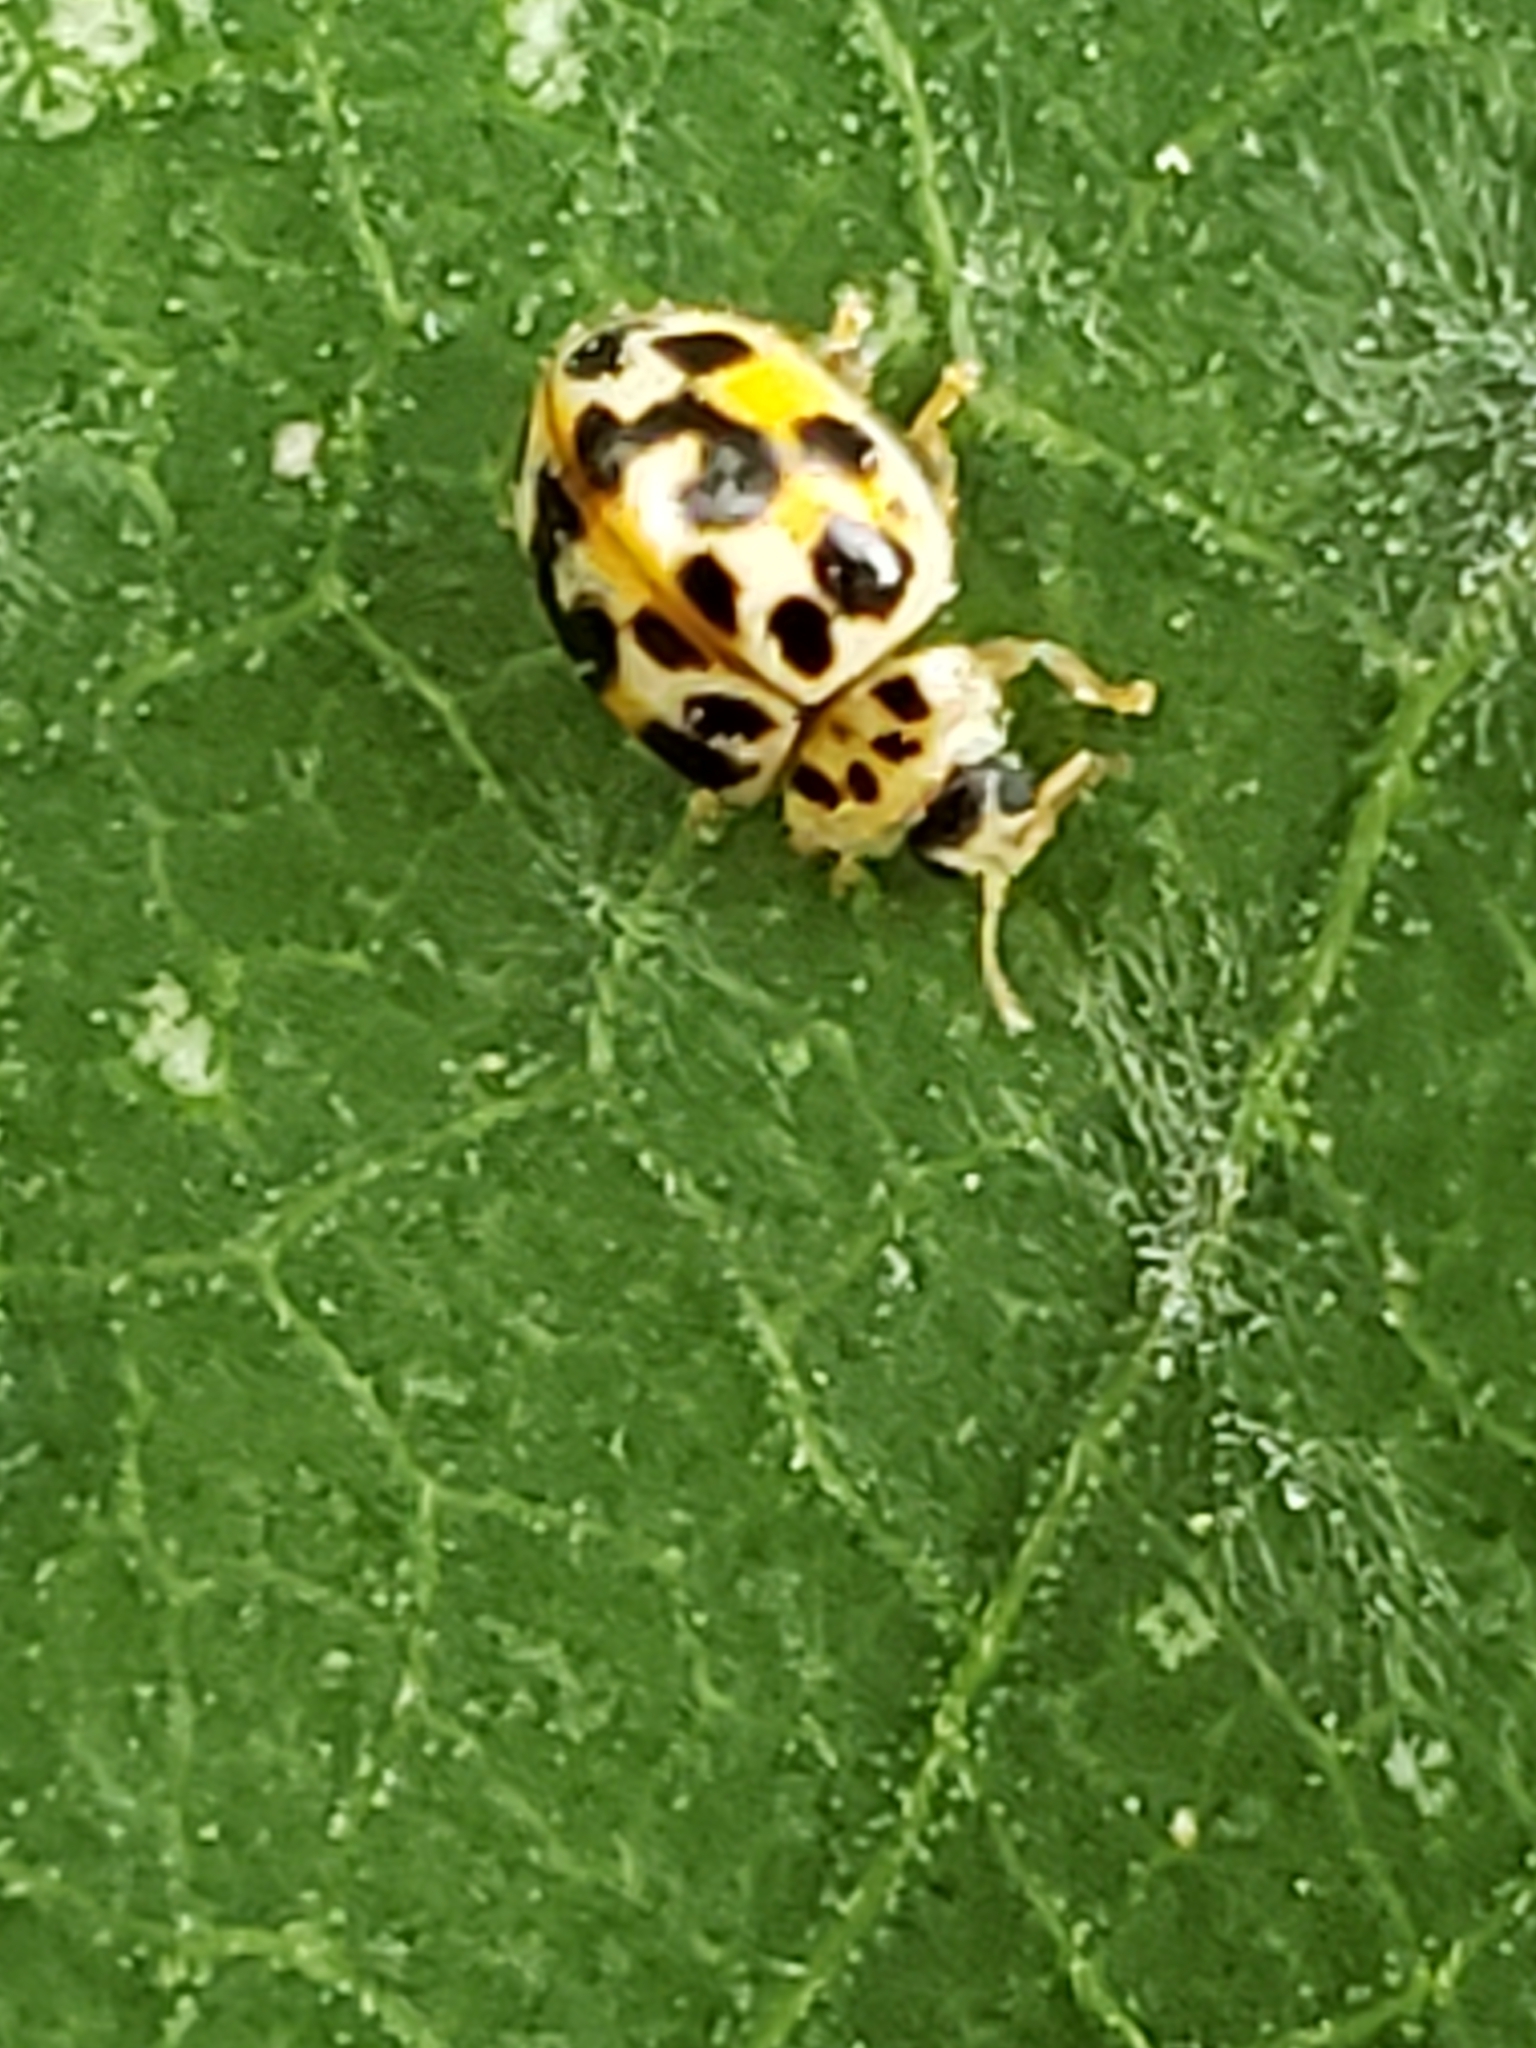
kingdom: Animalia
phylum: Arthropoda
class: Insecta
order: Coleoptera
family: Coccinellidae
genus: Psyllobora
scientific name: Psyllobora vigintimaculata
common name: Ladybird beetle
